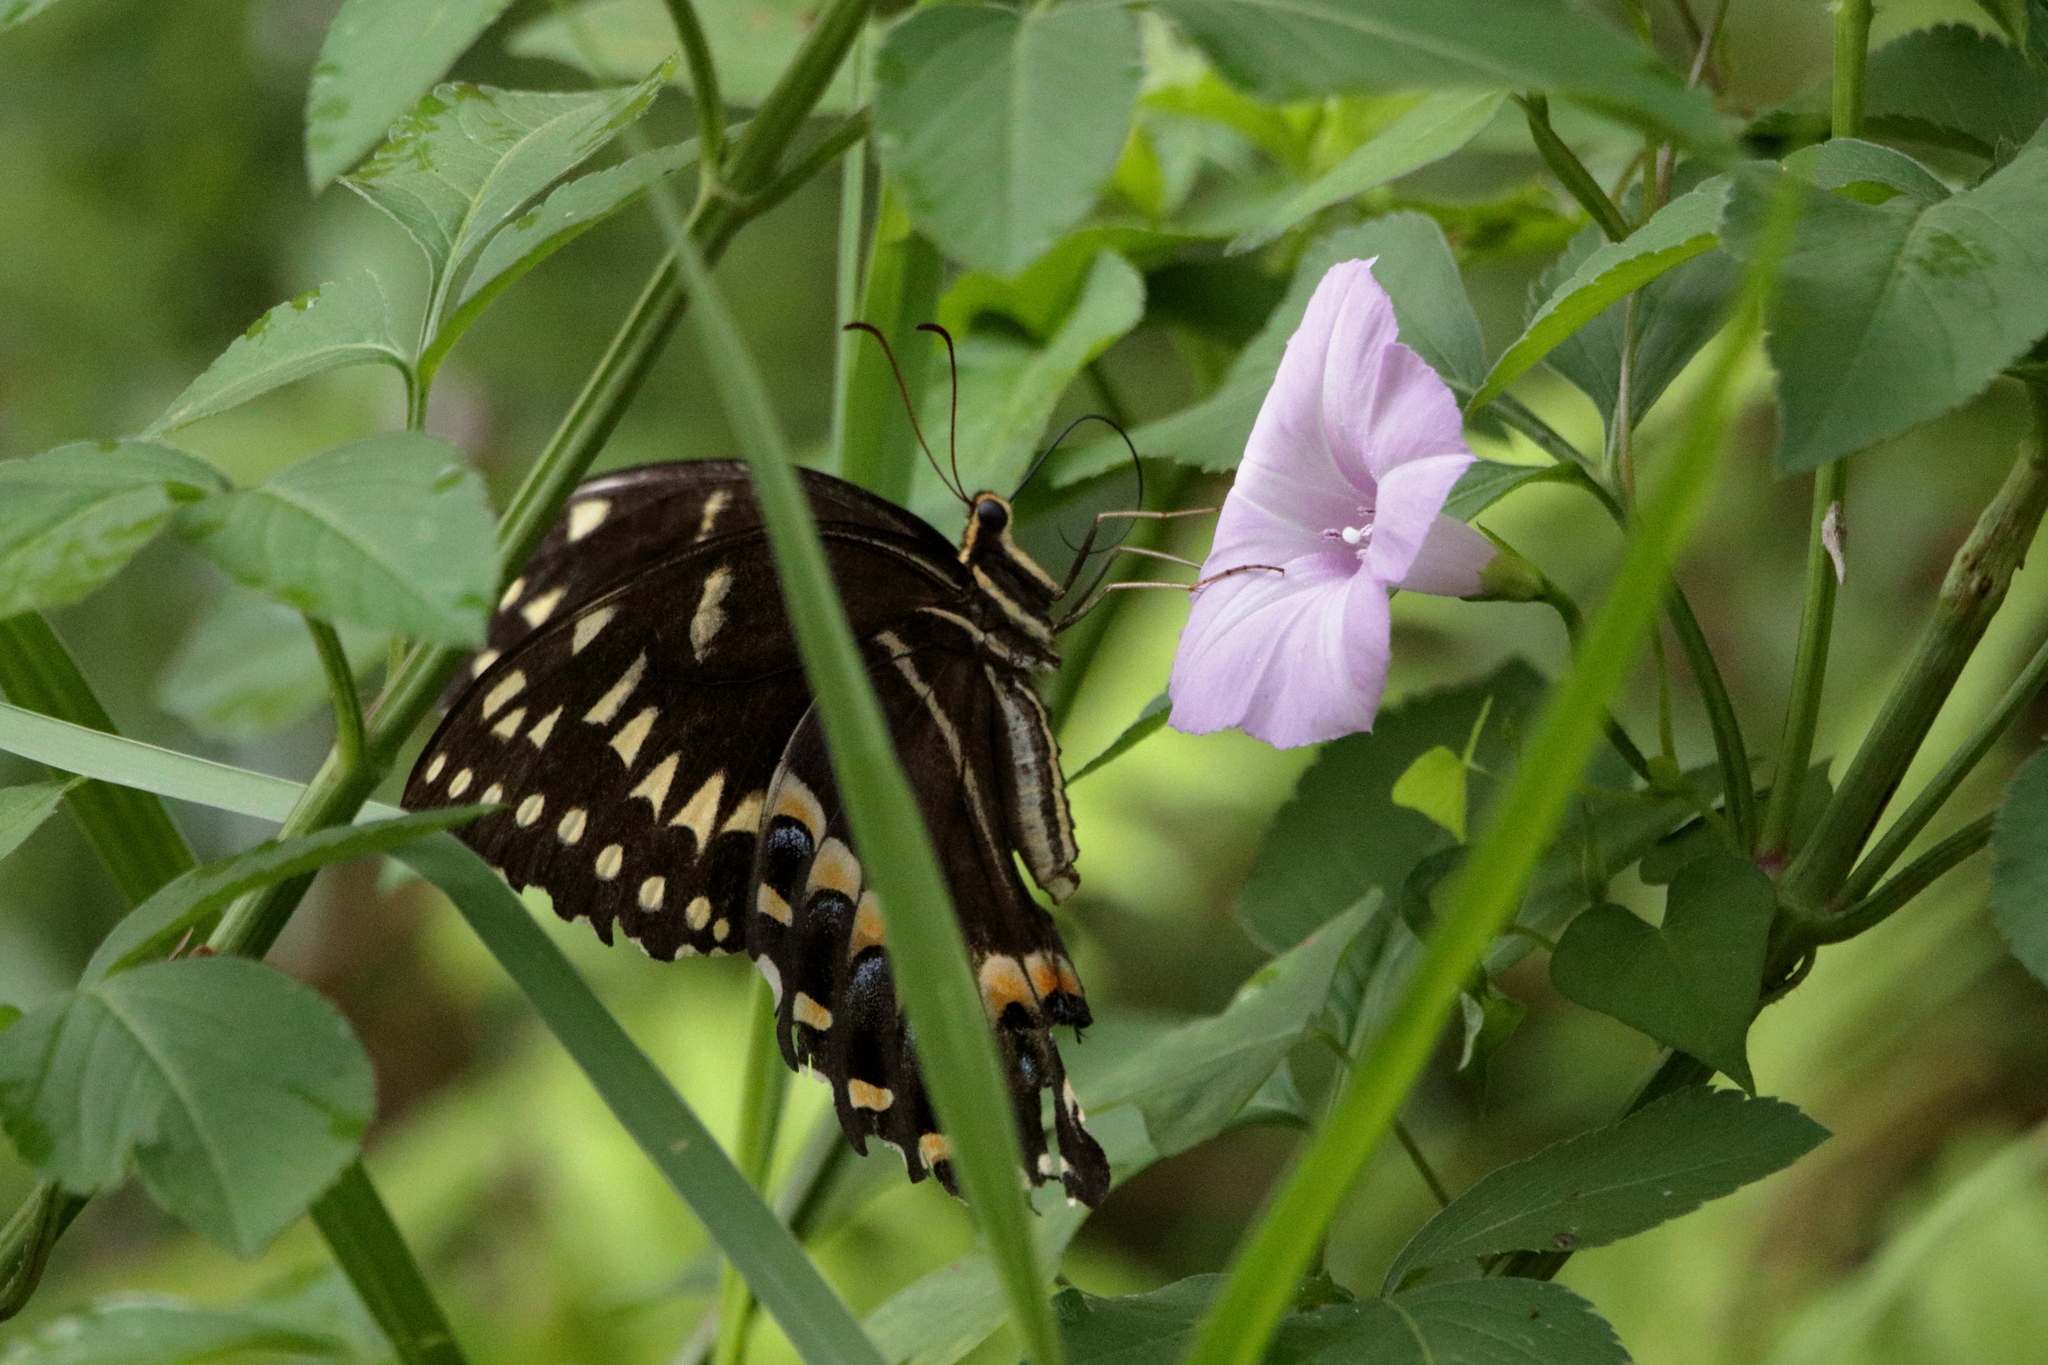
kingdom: Animalia
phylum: Arthropoda
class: Insecta
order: Lepidoptera
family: Papilionidae
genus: Papilio
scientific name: Papilio palamedes
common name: Palamedes swallowtail
